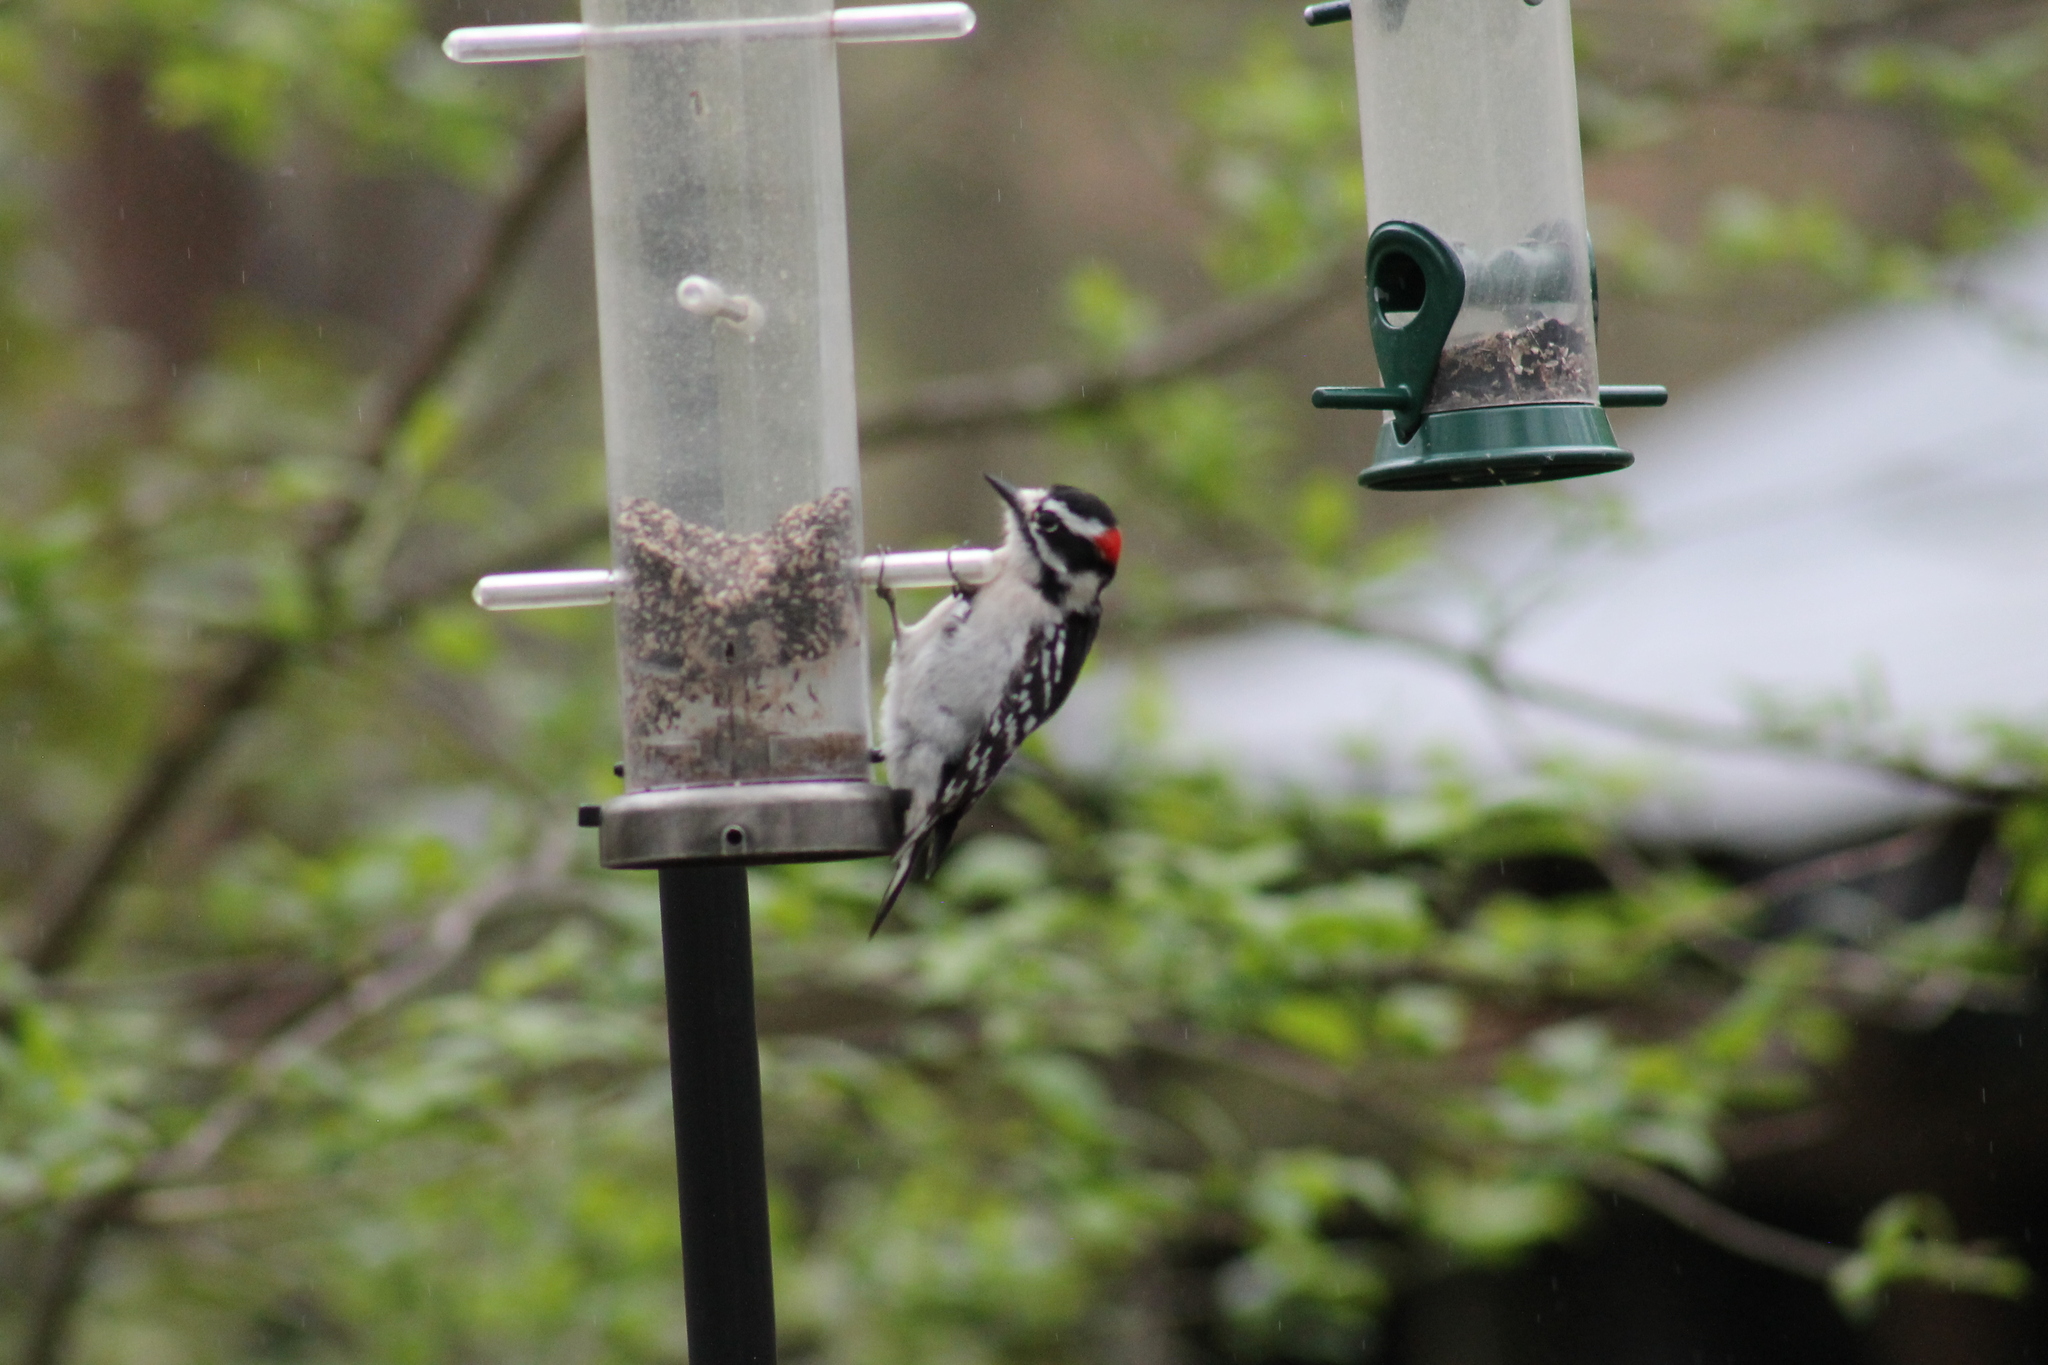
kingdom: Animalia
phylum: Chordata
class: Aves
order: Piciformes
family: Picidae
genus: Dryobates
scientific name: Dryobates pubescens
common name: Downy woodpecker
